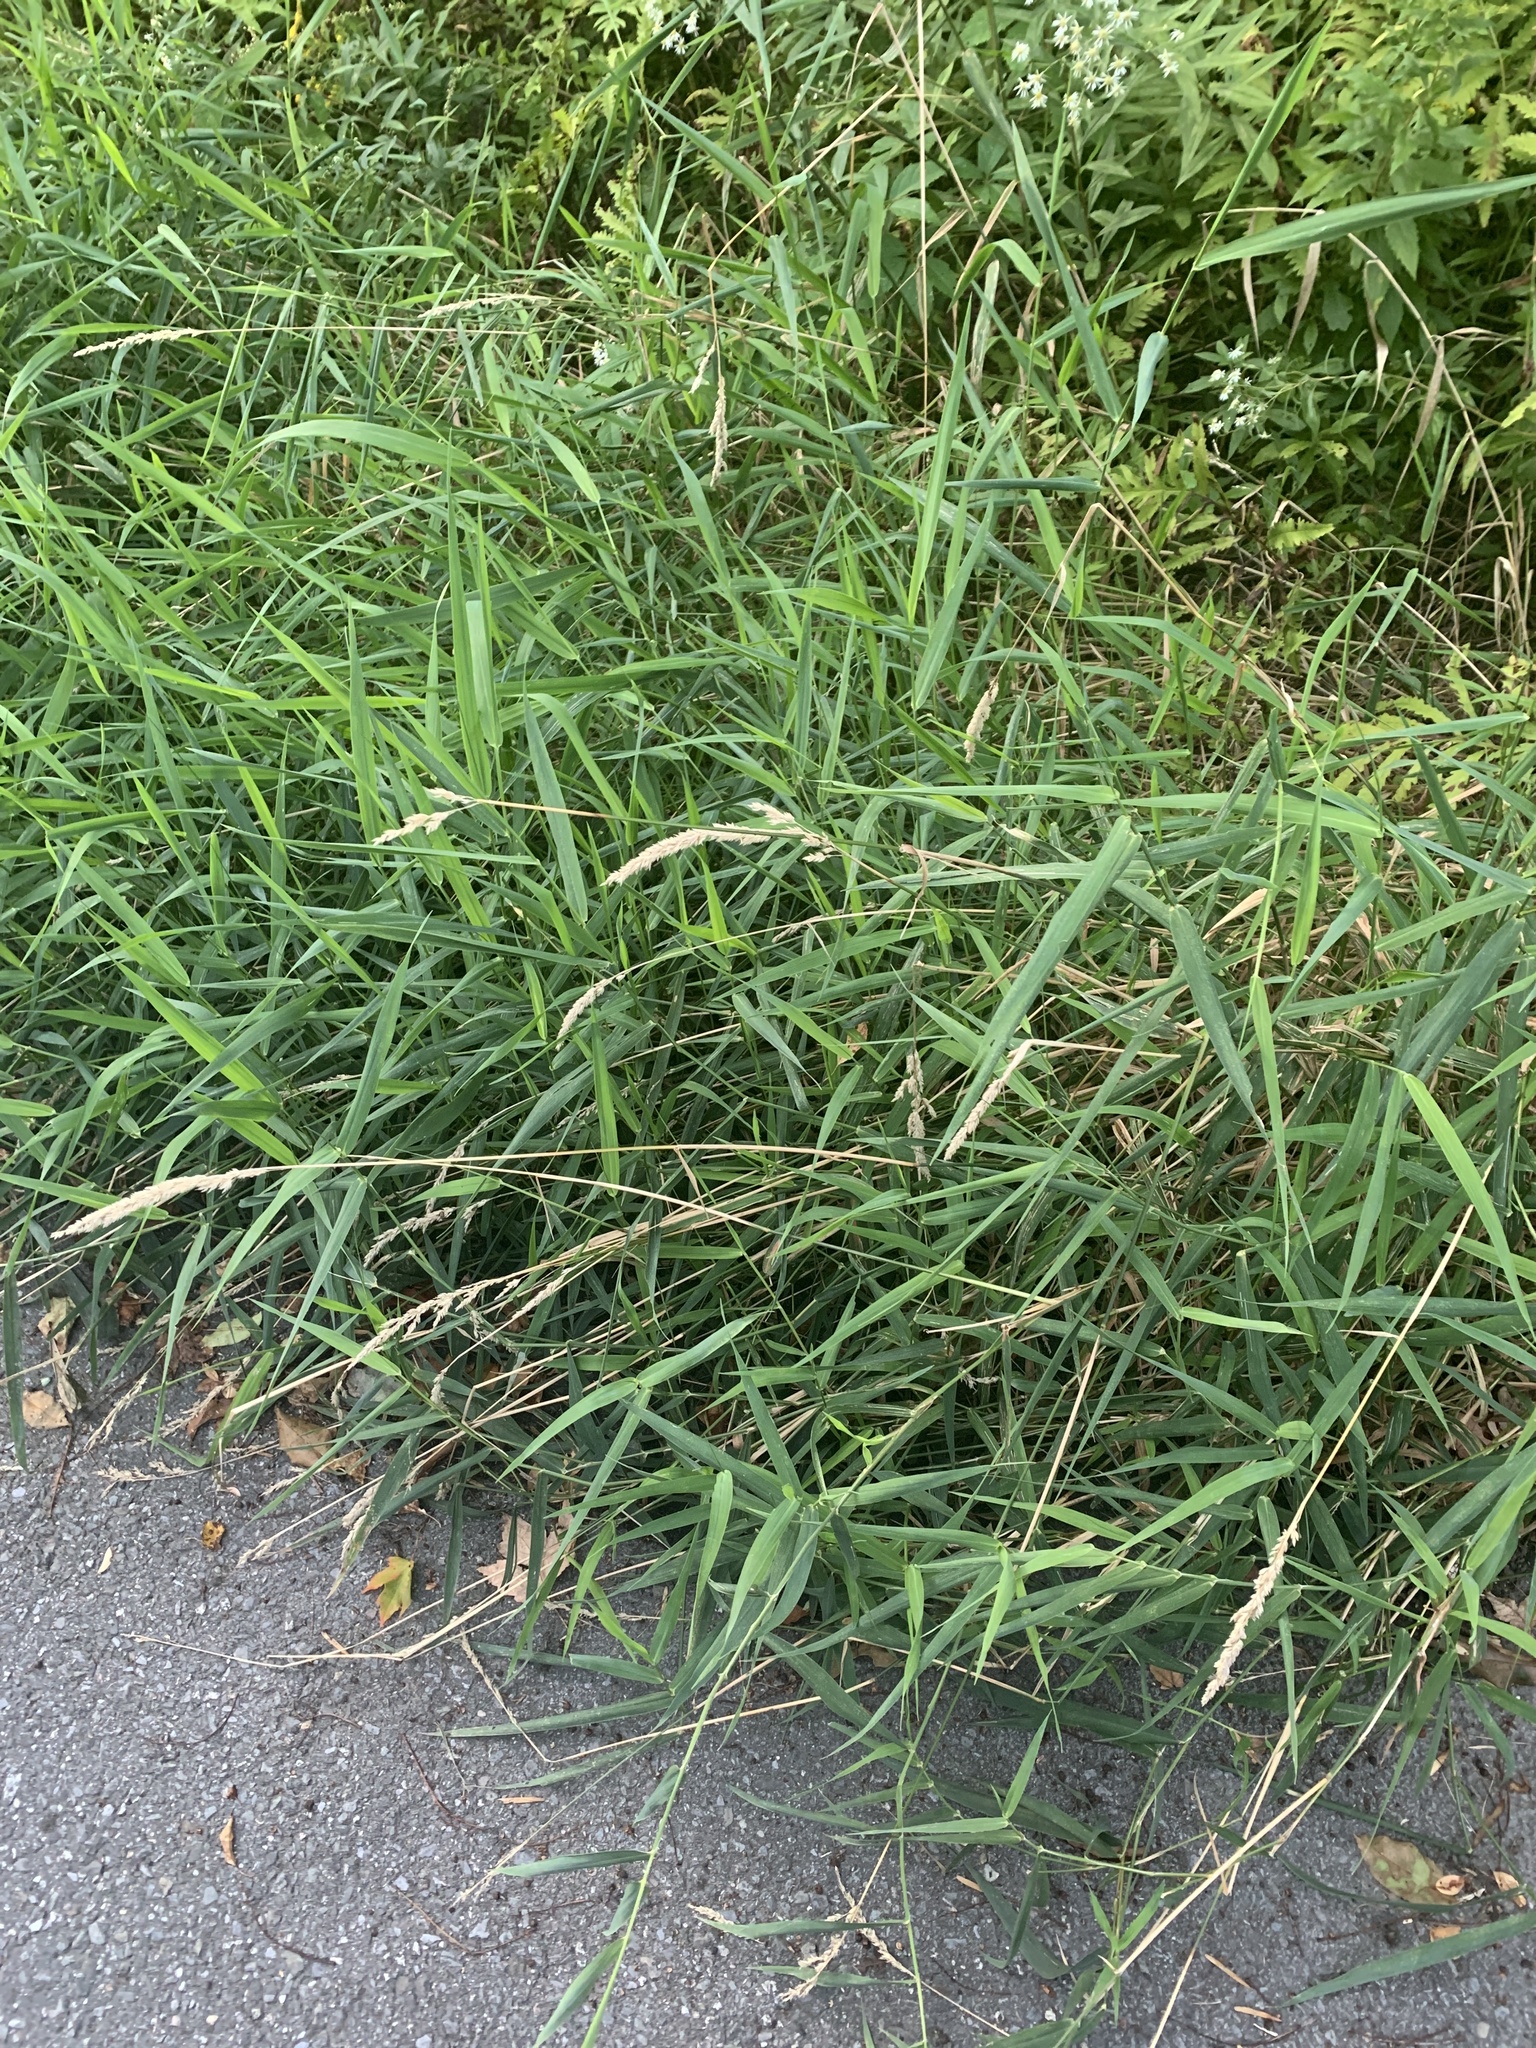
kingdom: Plantae
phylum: Tracheophyta
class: Liliopsida
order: Poales
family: Poaceae
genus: Phalaris
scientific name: Phalaris arundinacea
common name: Reed canary-grass
